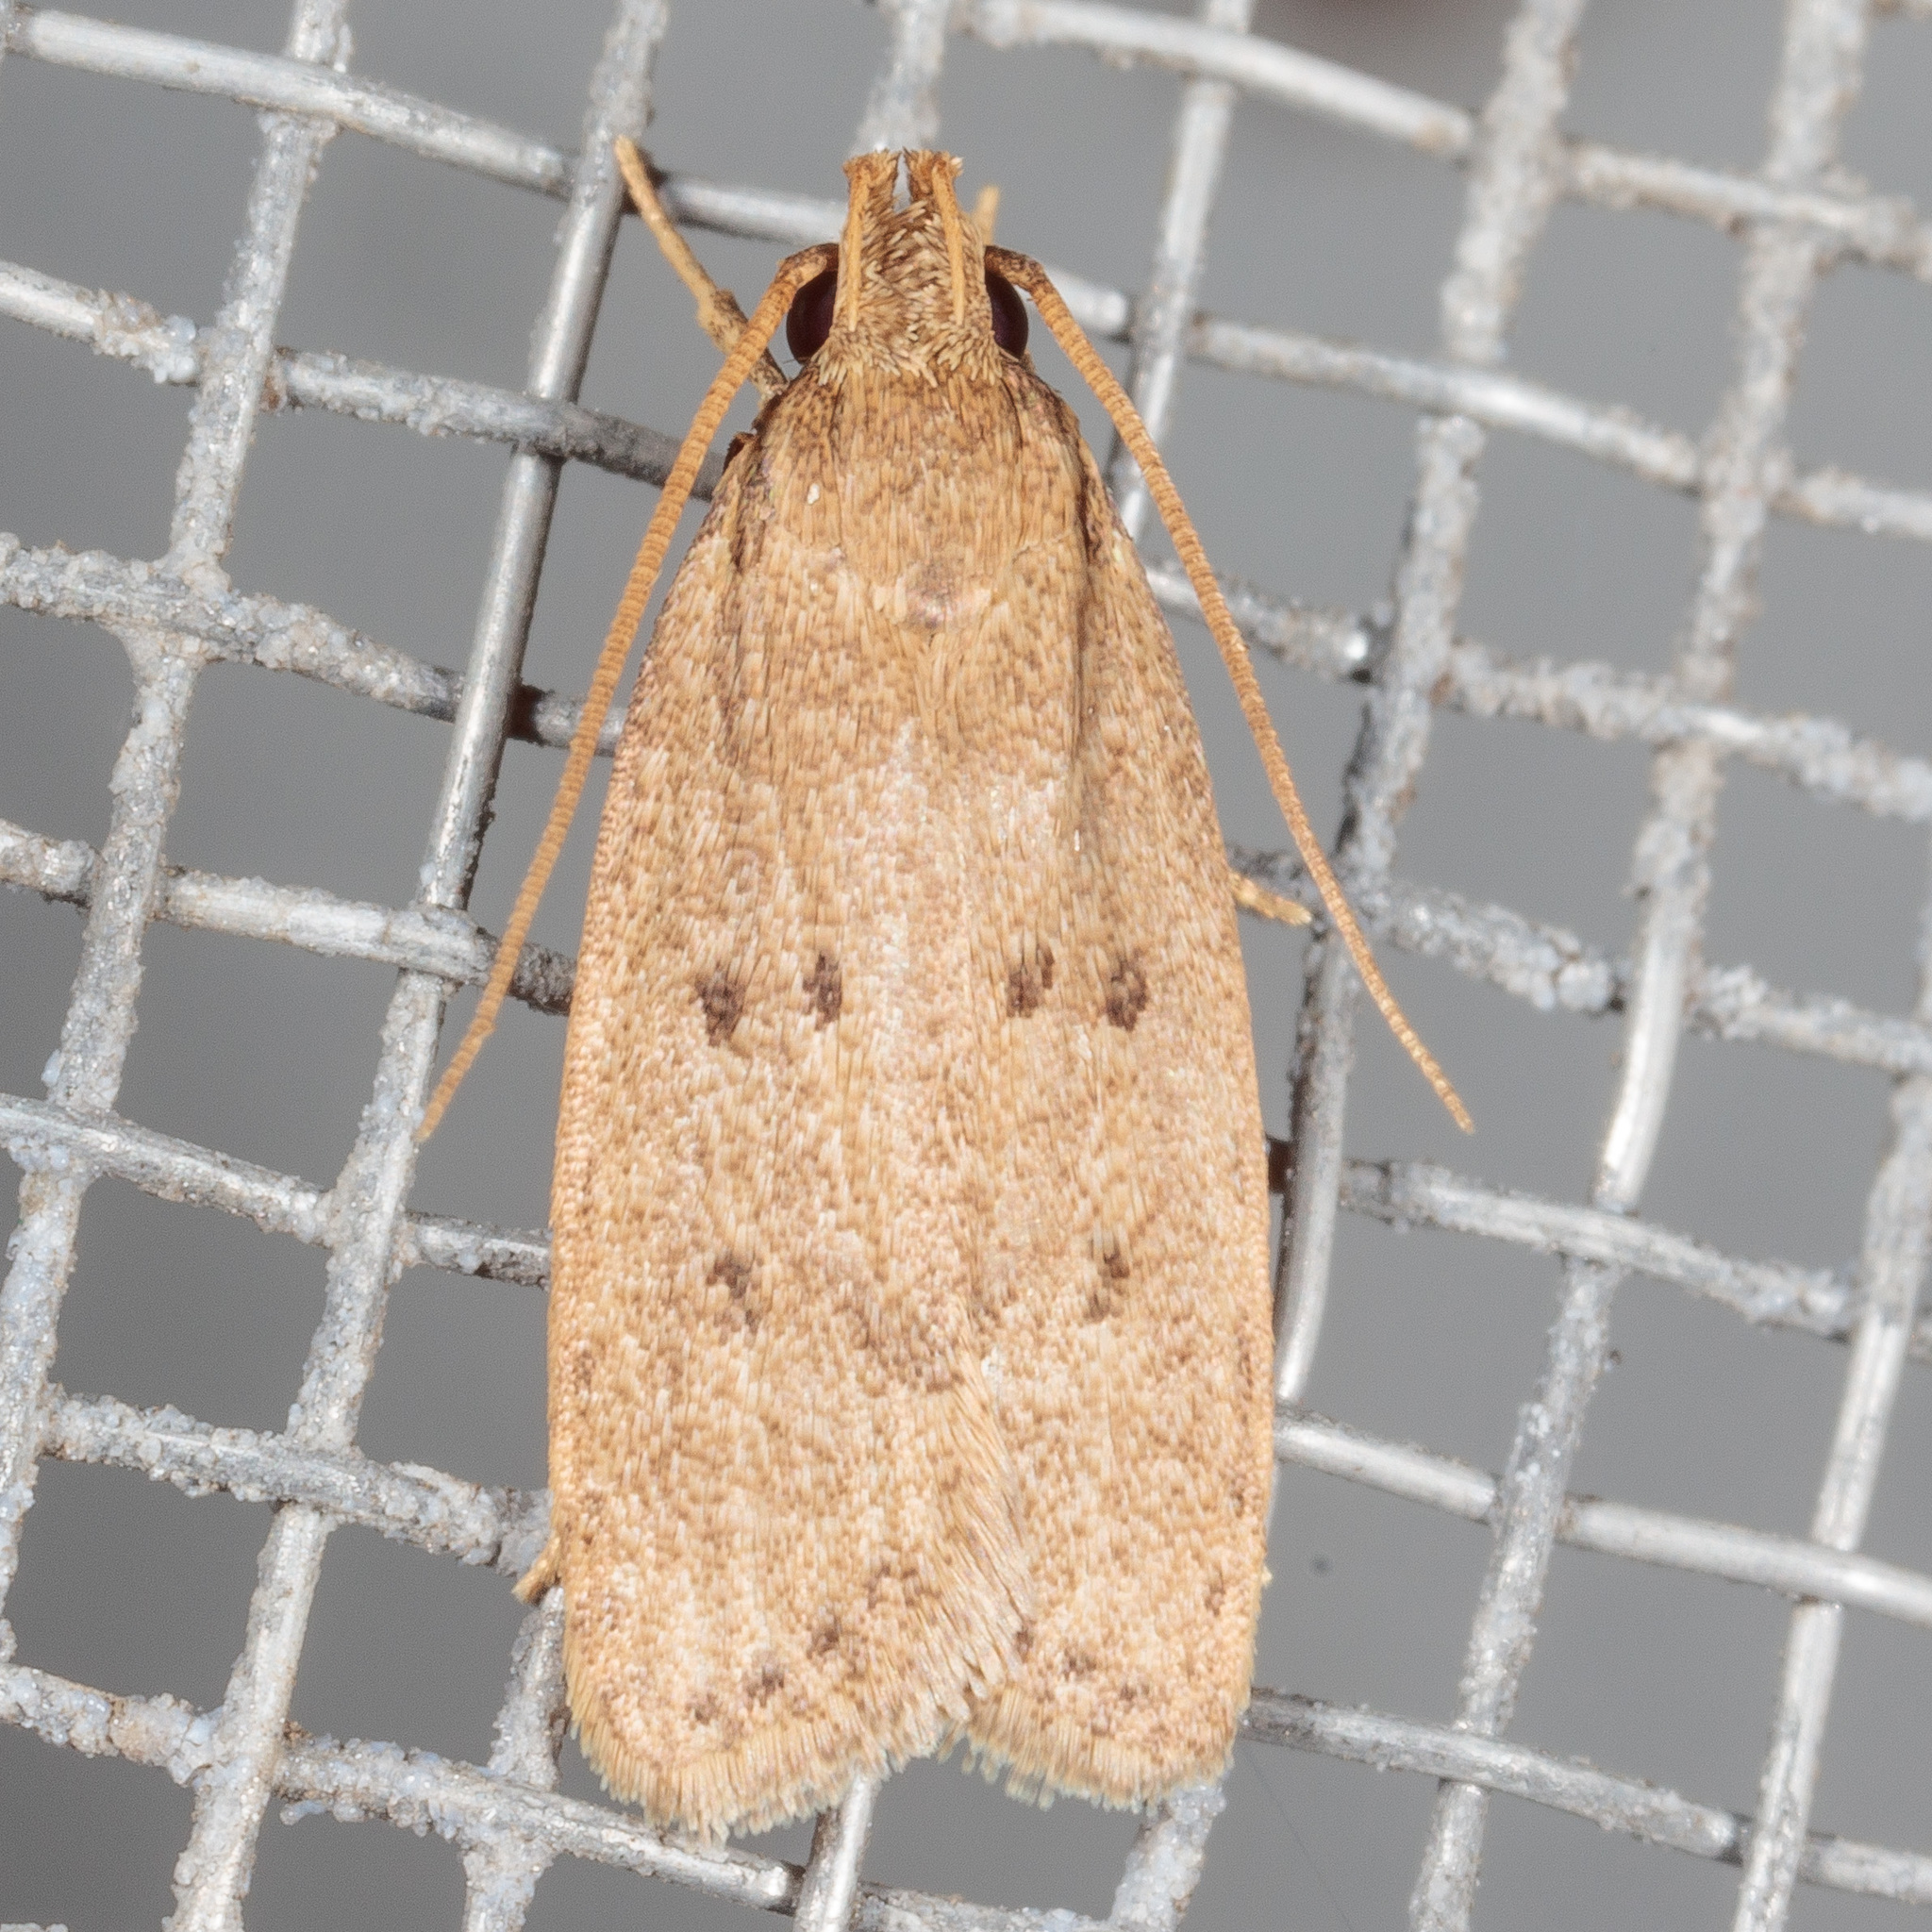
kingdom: Animalia
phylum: Arthropoda
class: Insecta
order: Lepidoptera
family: Autostichidae
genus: Autosticha
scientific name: Autosticha kyotensis
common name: Kyoto moth
